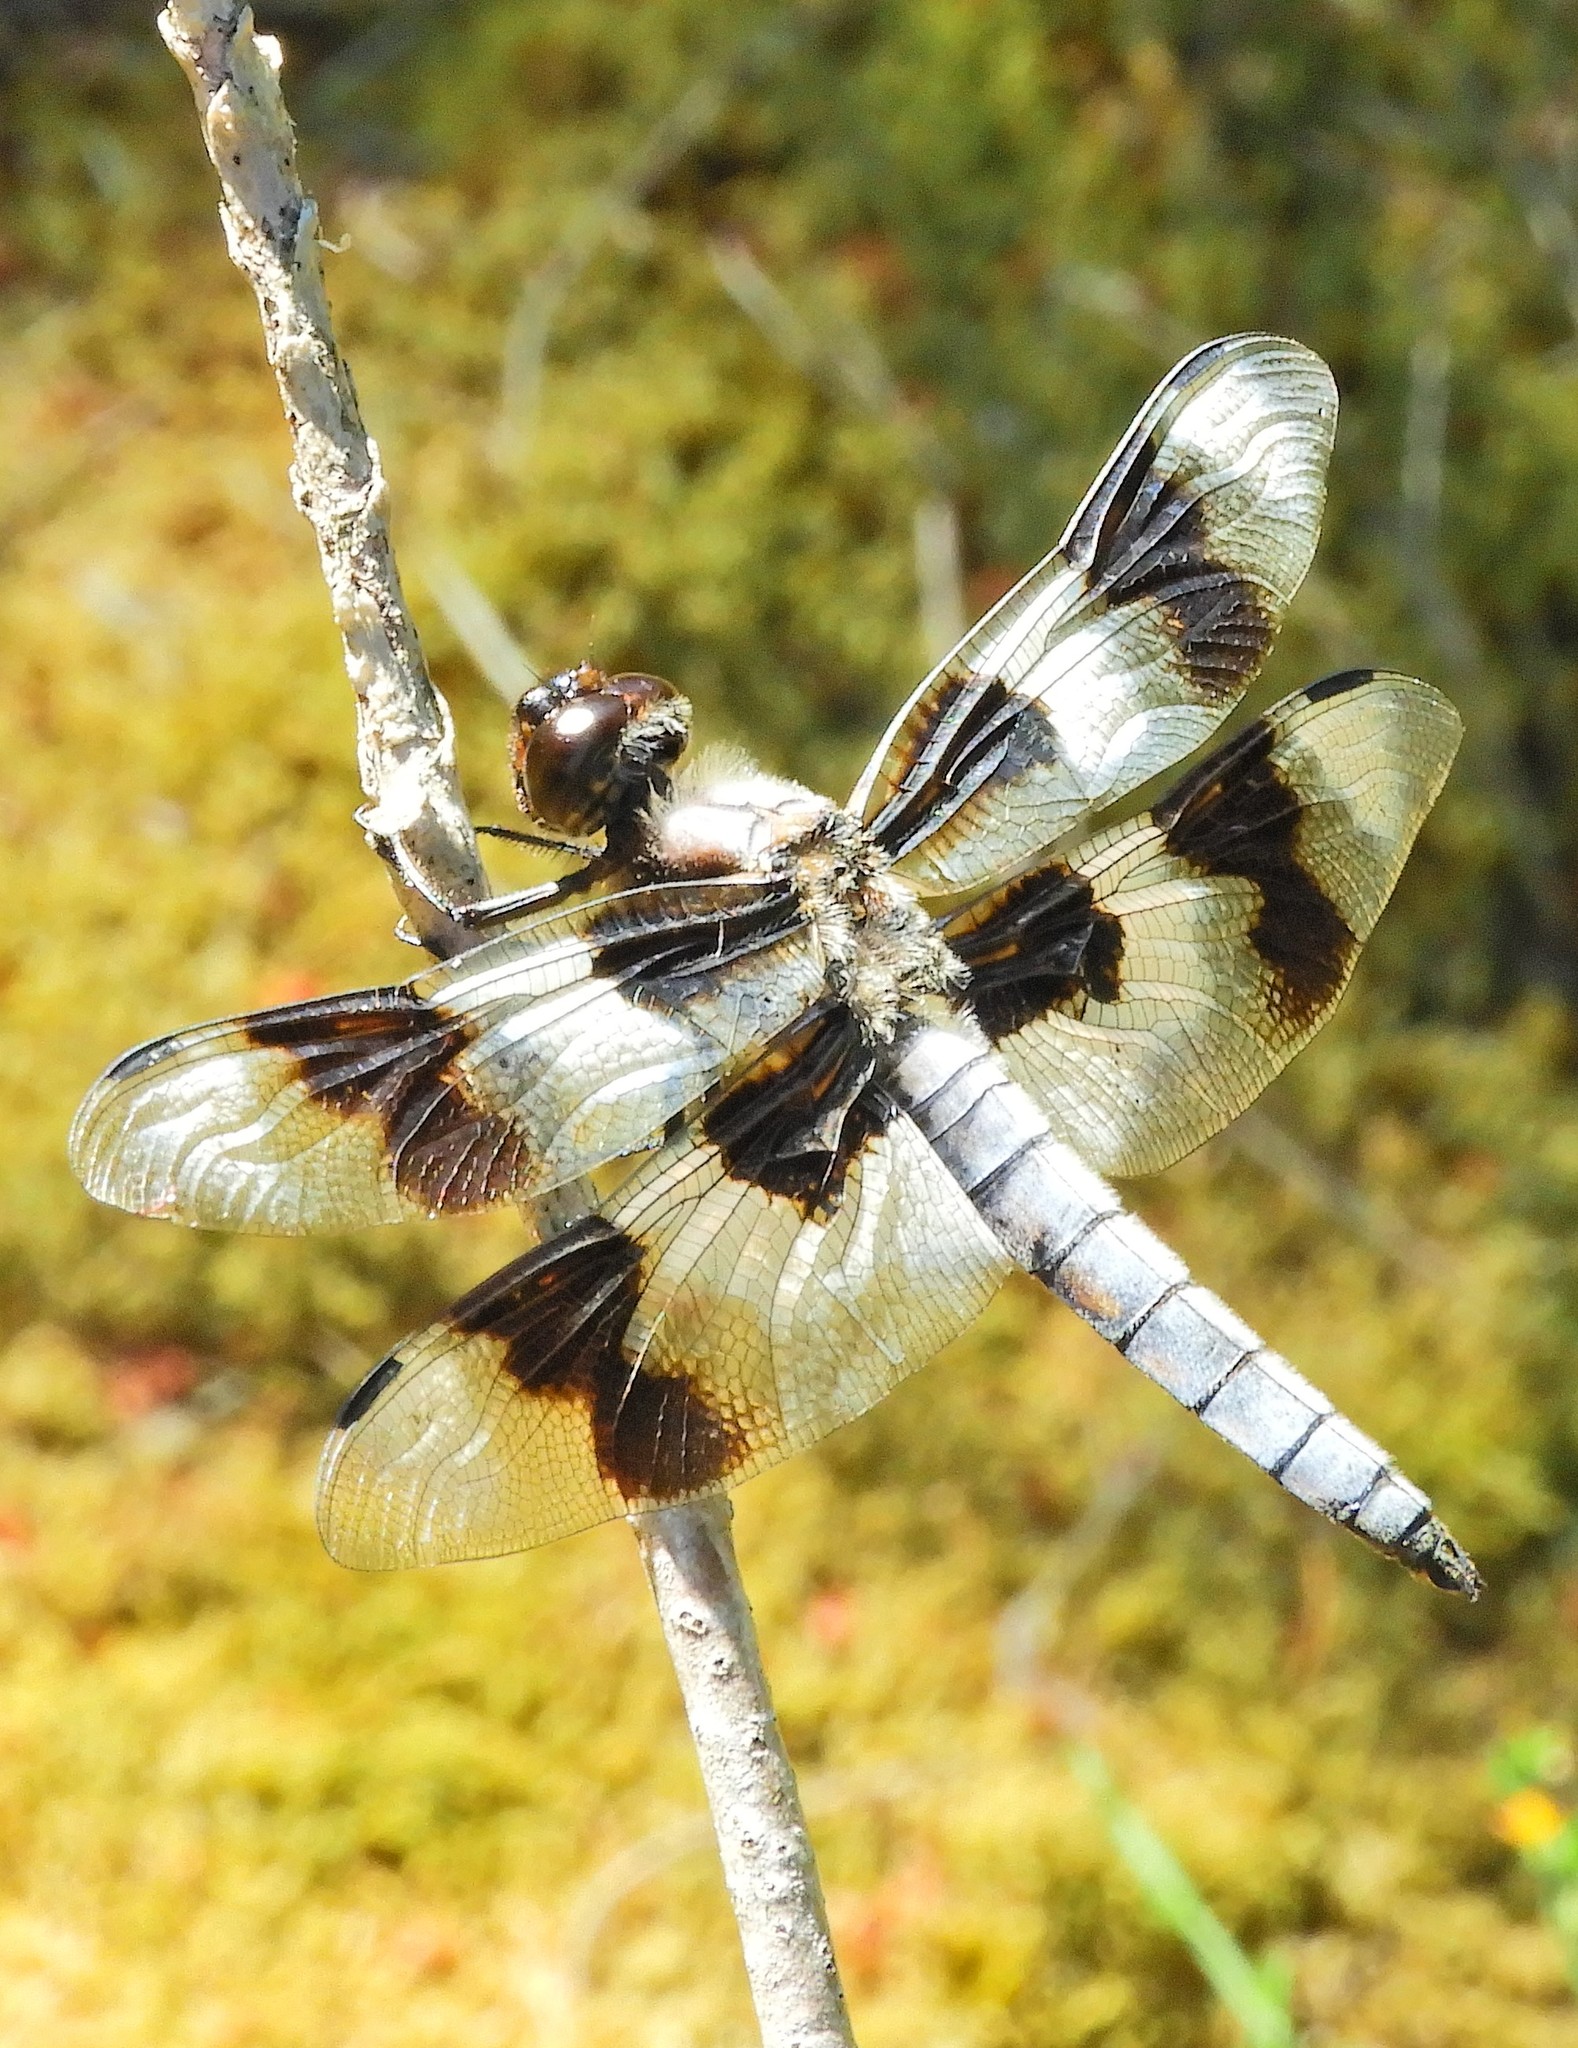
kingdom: Animalia
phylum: Arthropoda
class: Insecta
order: Odonata
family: Libellulidae
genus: Libellula
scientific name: Libellula forensis
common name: Eight-spotted skimmer
